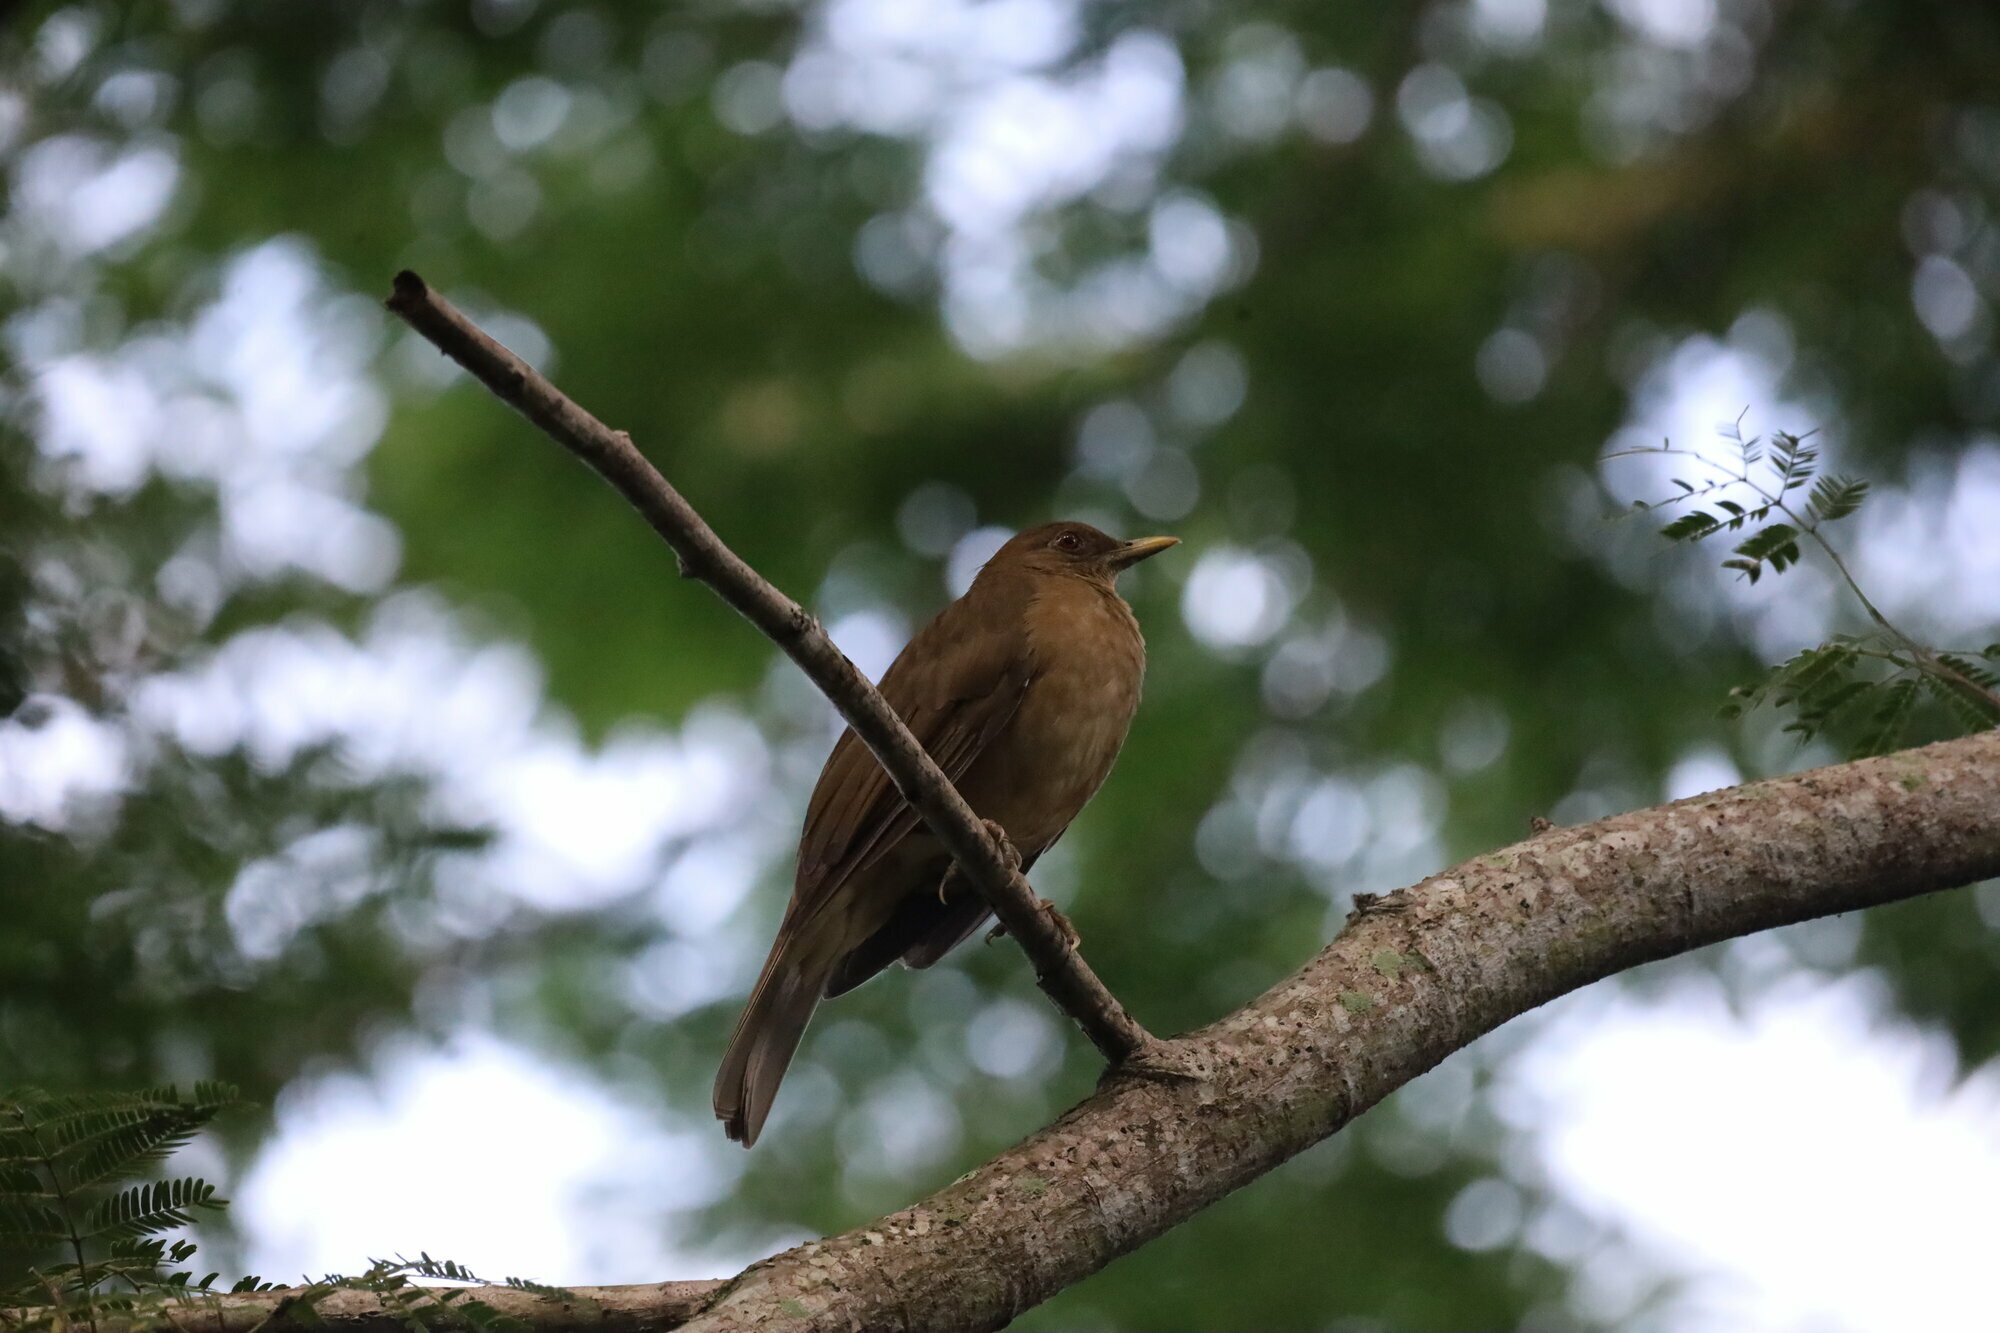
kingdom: Animalia
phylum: Chordata
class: Aves
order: Passeriformes
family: Turdidae
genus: Turdus
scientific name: Turdus grayi
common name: Clay-colored thrush
